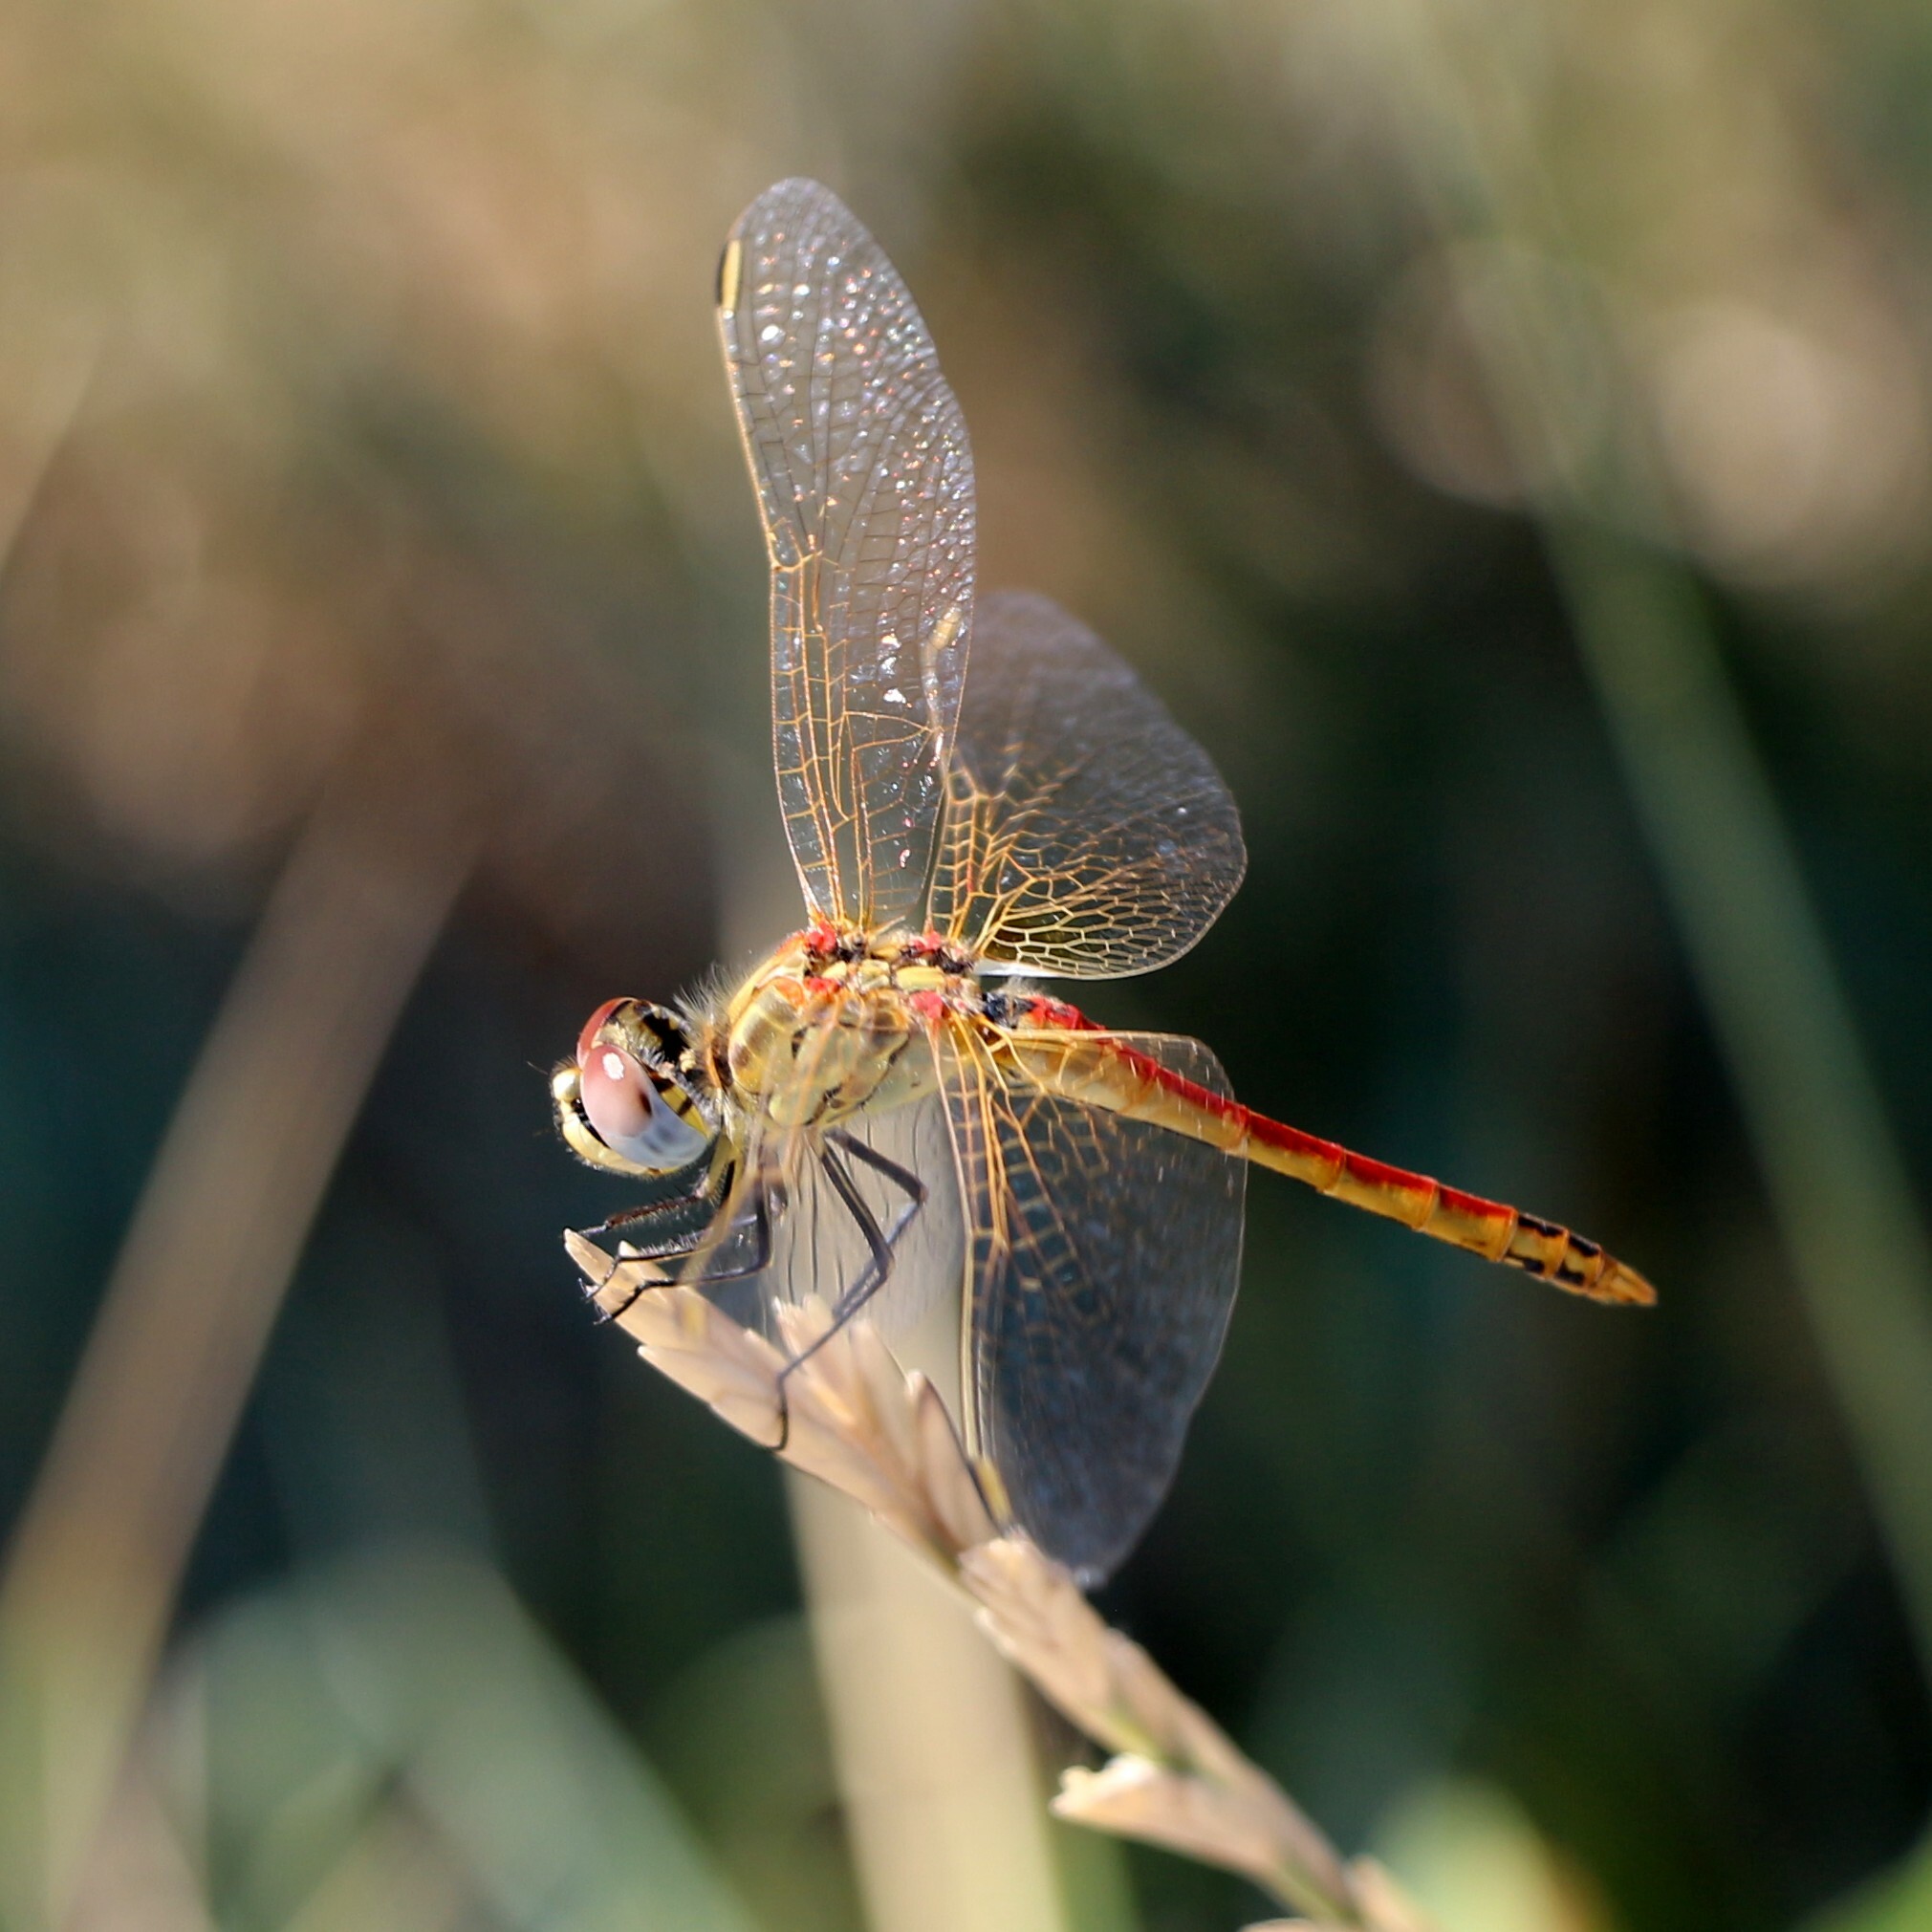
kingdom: Animalia
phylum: Arthropoda
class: Insecta
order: Odonata
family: Libellulidae
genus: Sympetrum
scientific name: Sympetrum fonscolombii
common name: Red-veined darter
